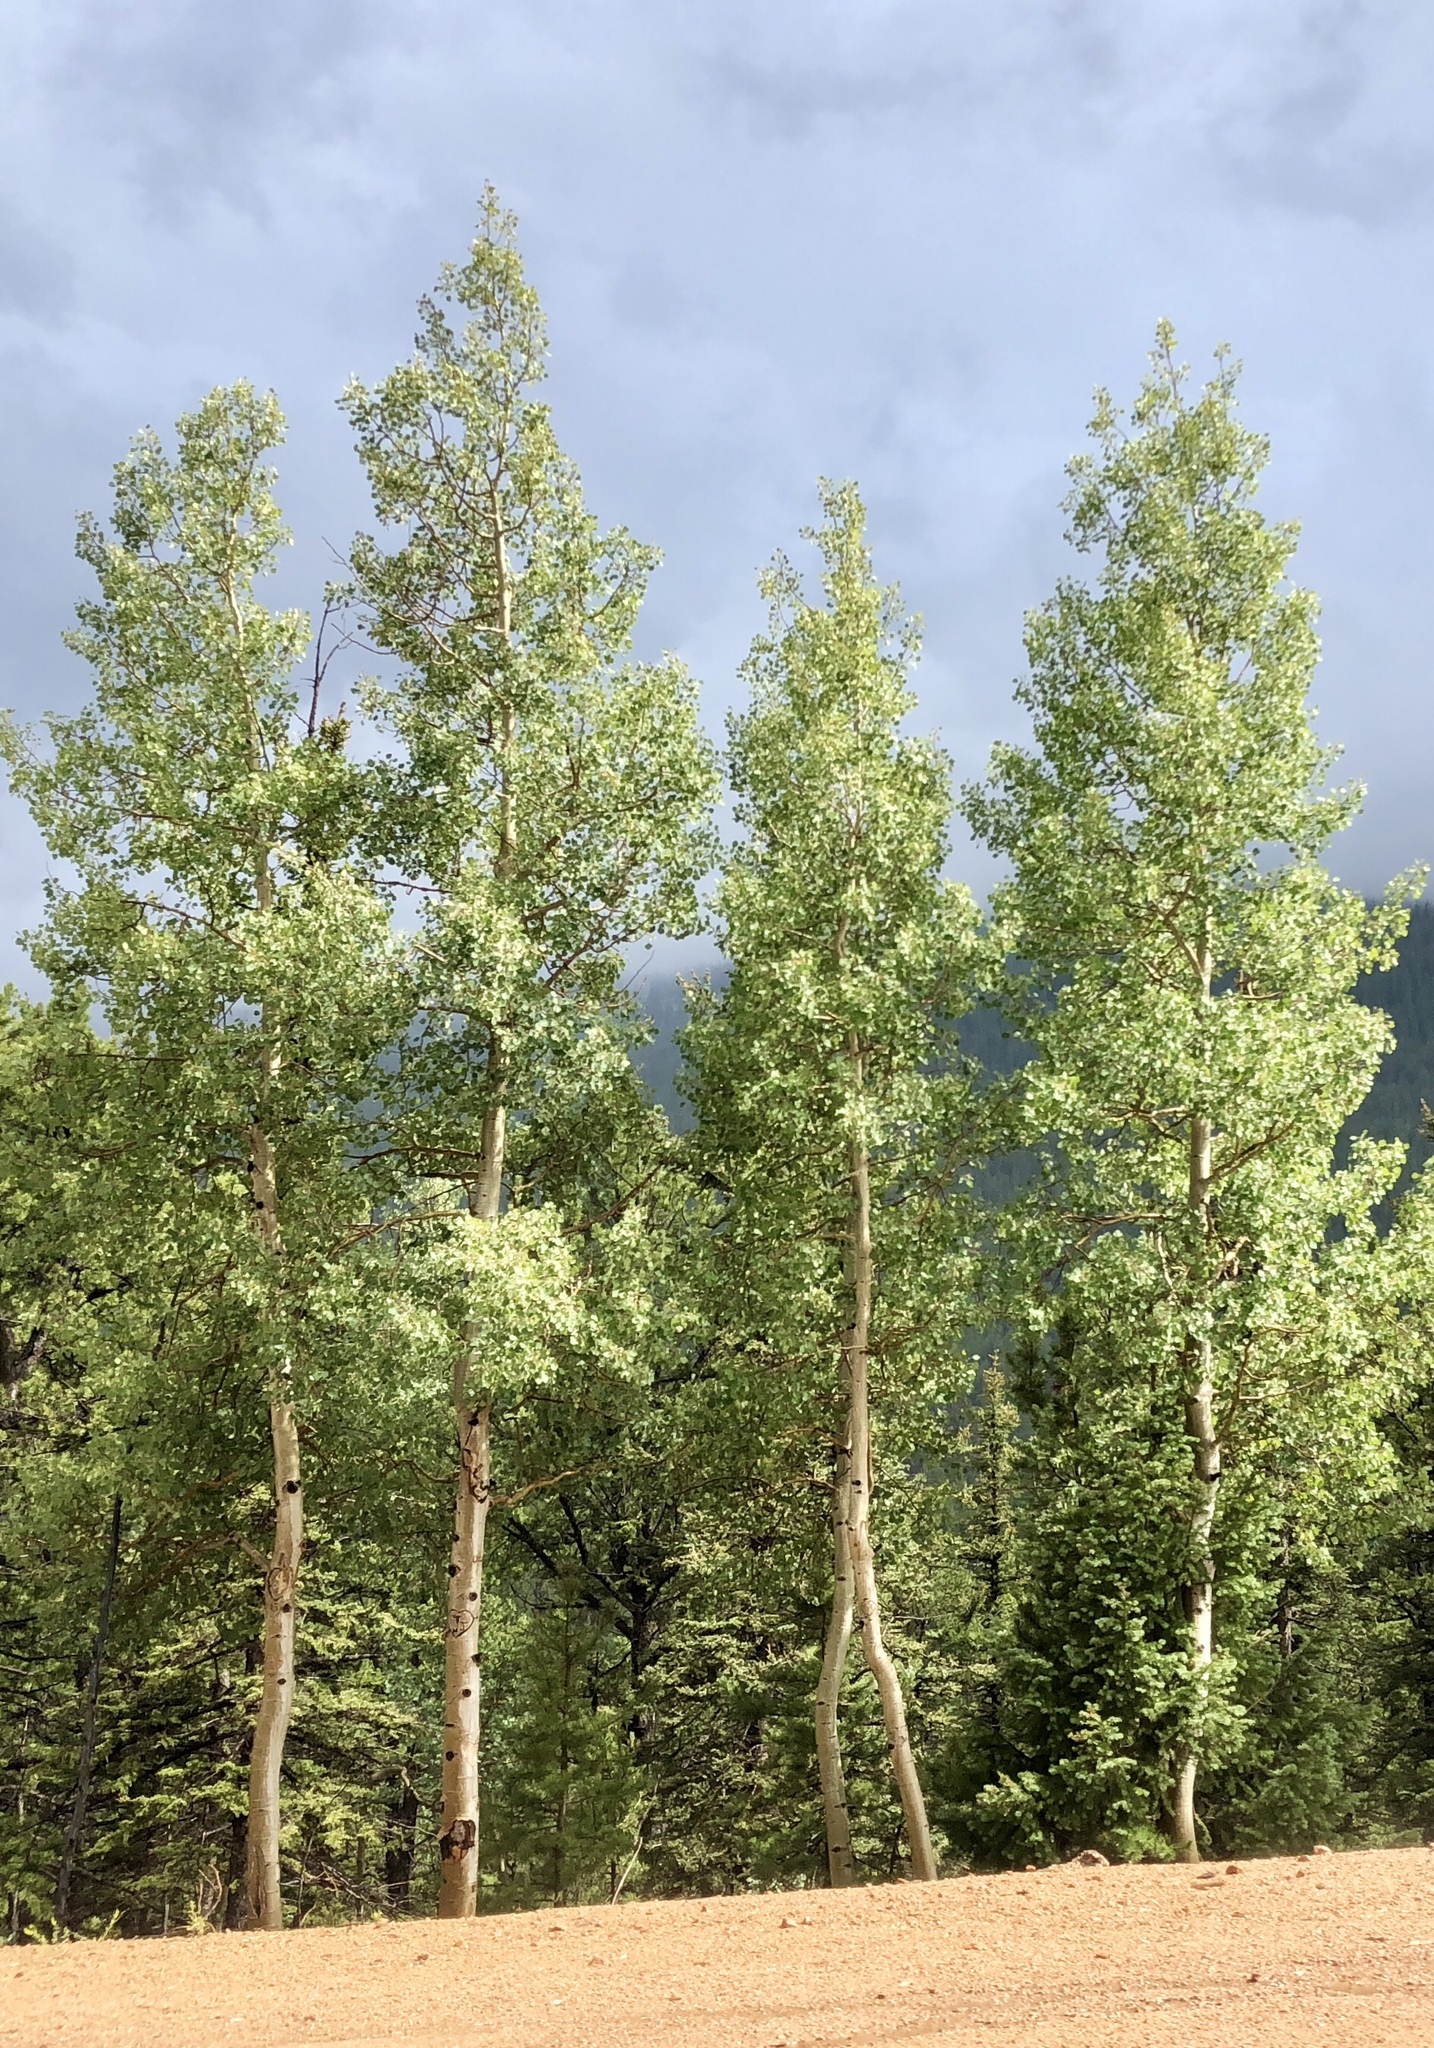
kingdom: Plantae
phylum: Tracheophyta
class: Magnoliopsida
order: Malpighiales
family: Salicaceae
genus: Populus
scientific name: Populus tremuloides
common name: Quaking aspen
